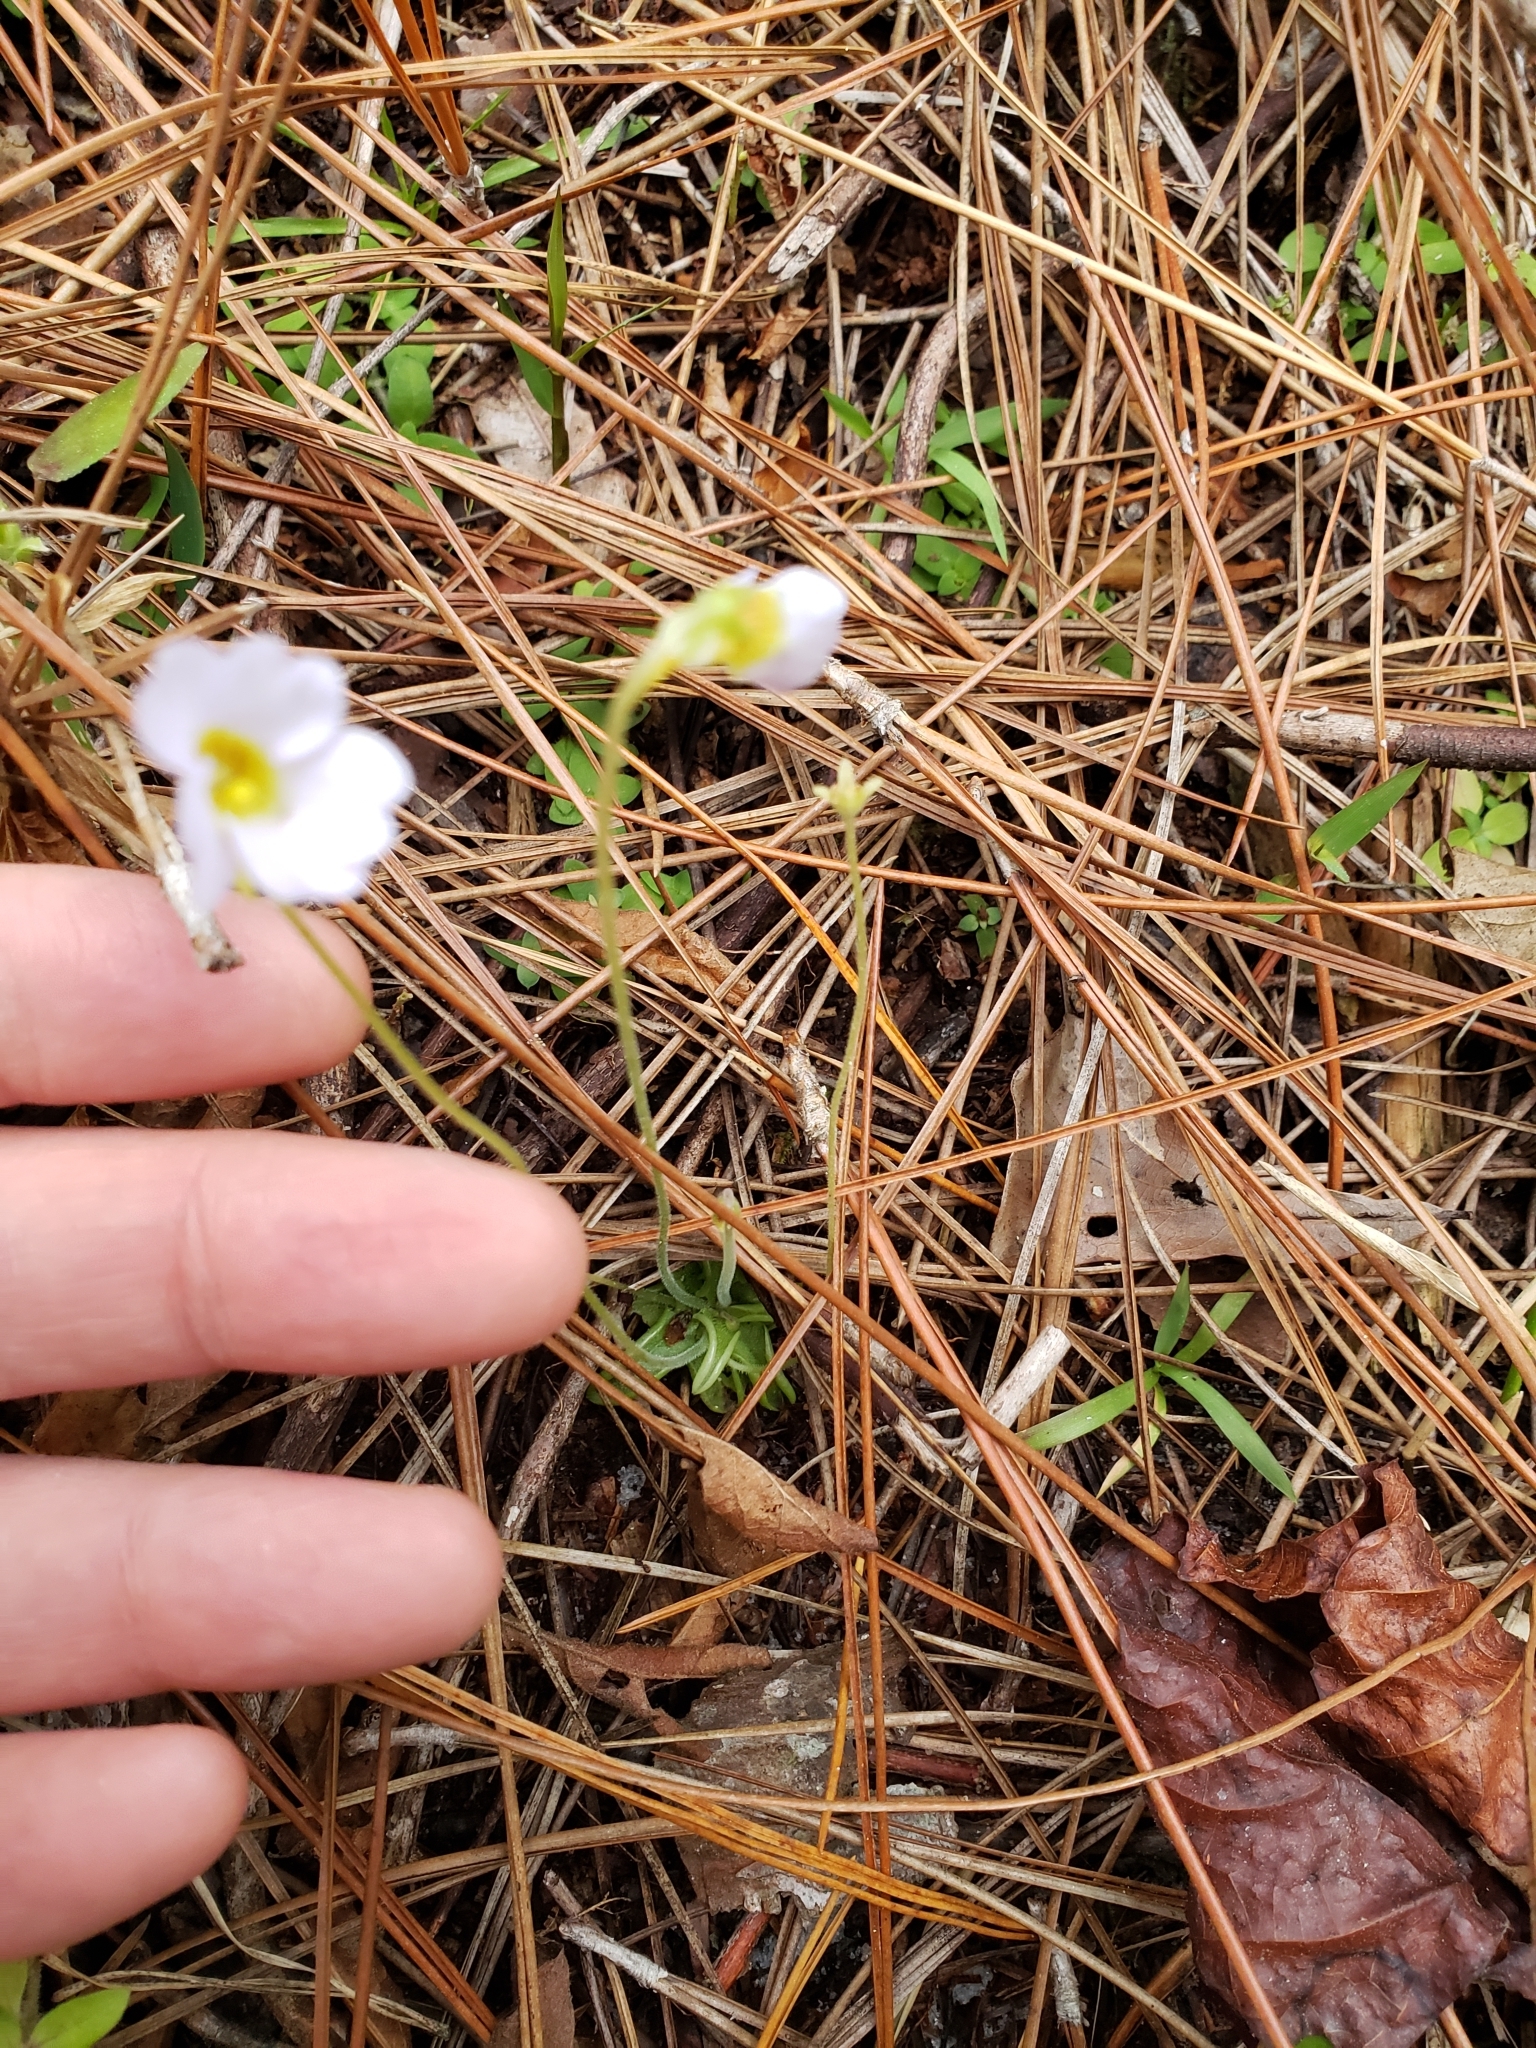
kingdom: Plantae
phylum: Tracheophyta
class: Magnoliopsida
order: Lamiales
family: Lentibulariaceae
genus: Pinguicula
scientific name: Pinguicula pumila
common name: Small butterwort
